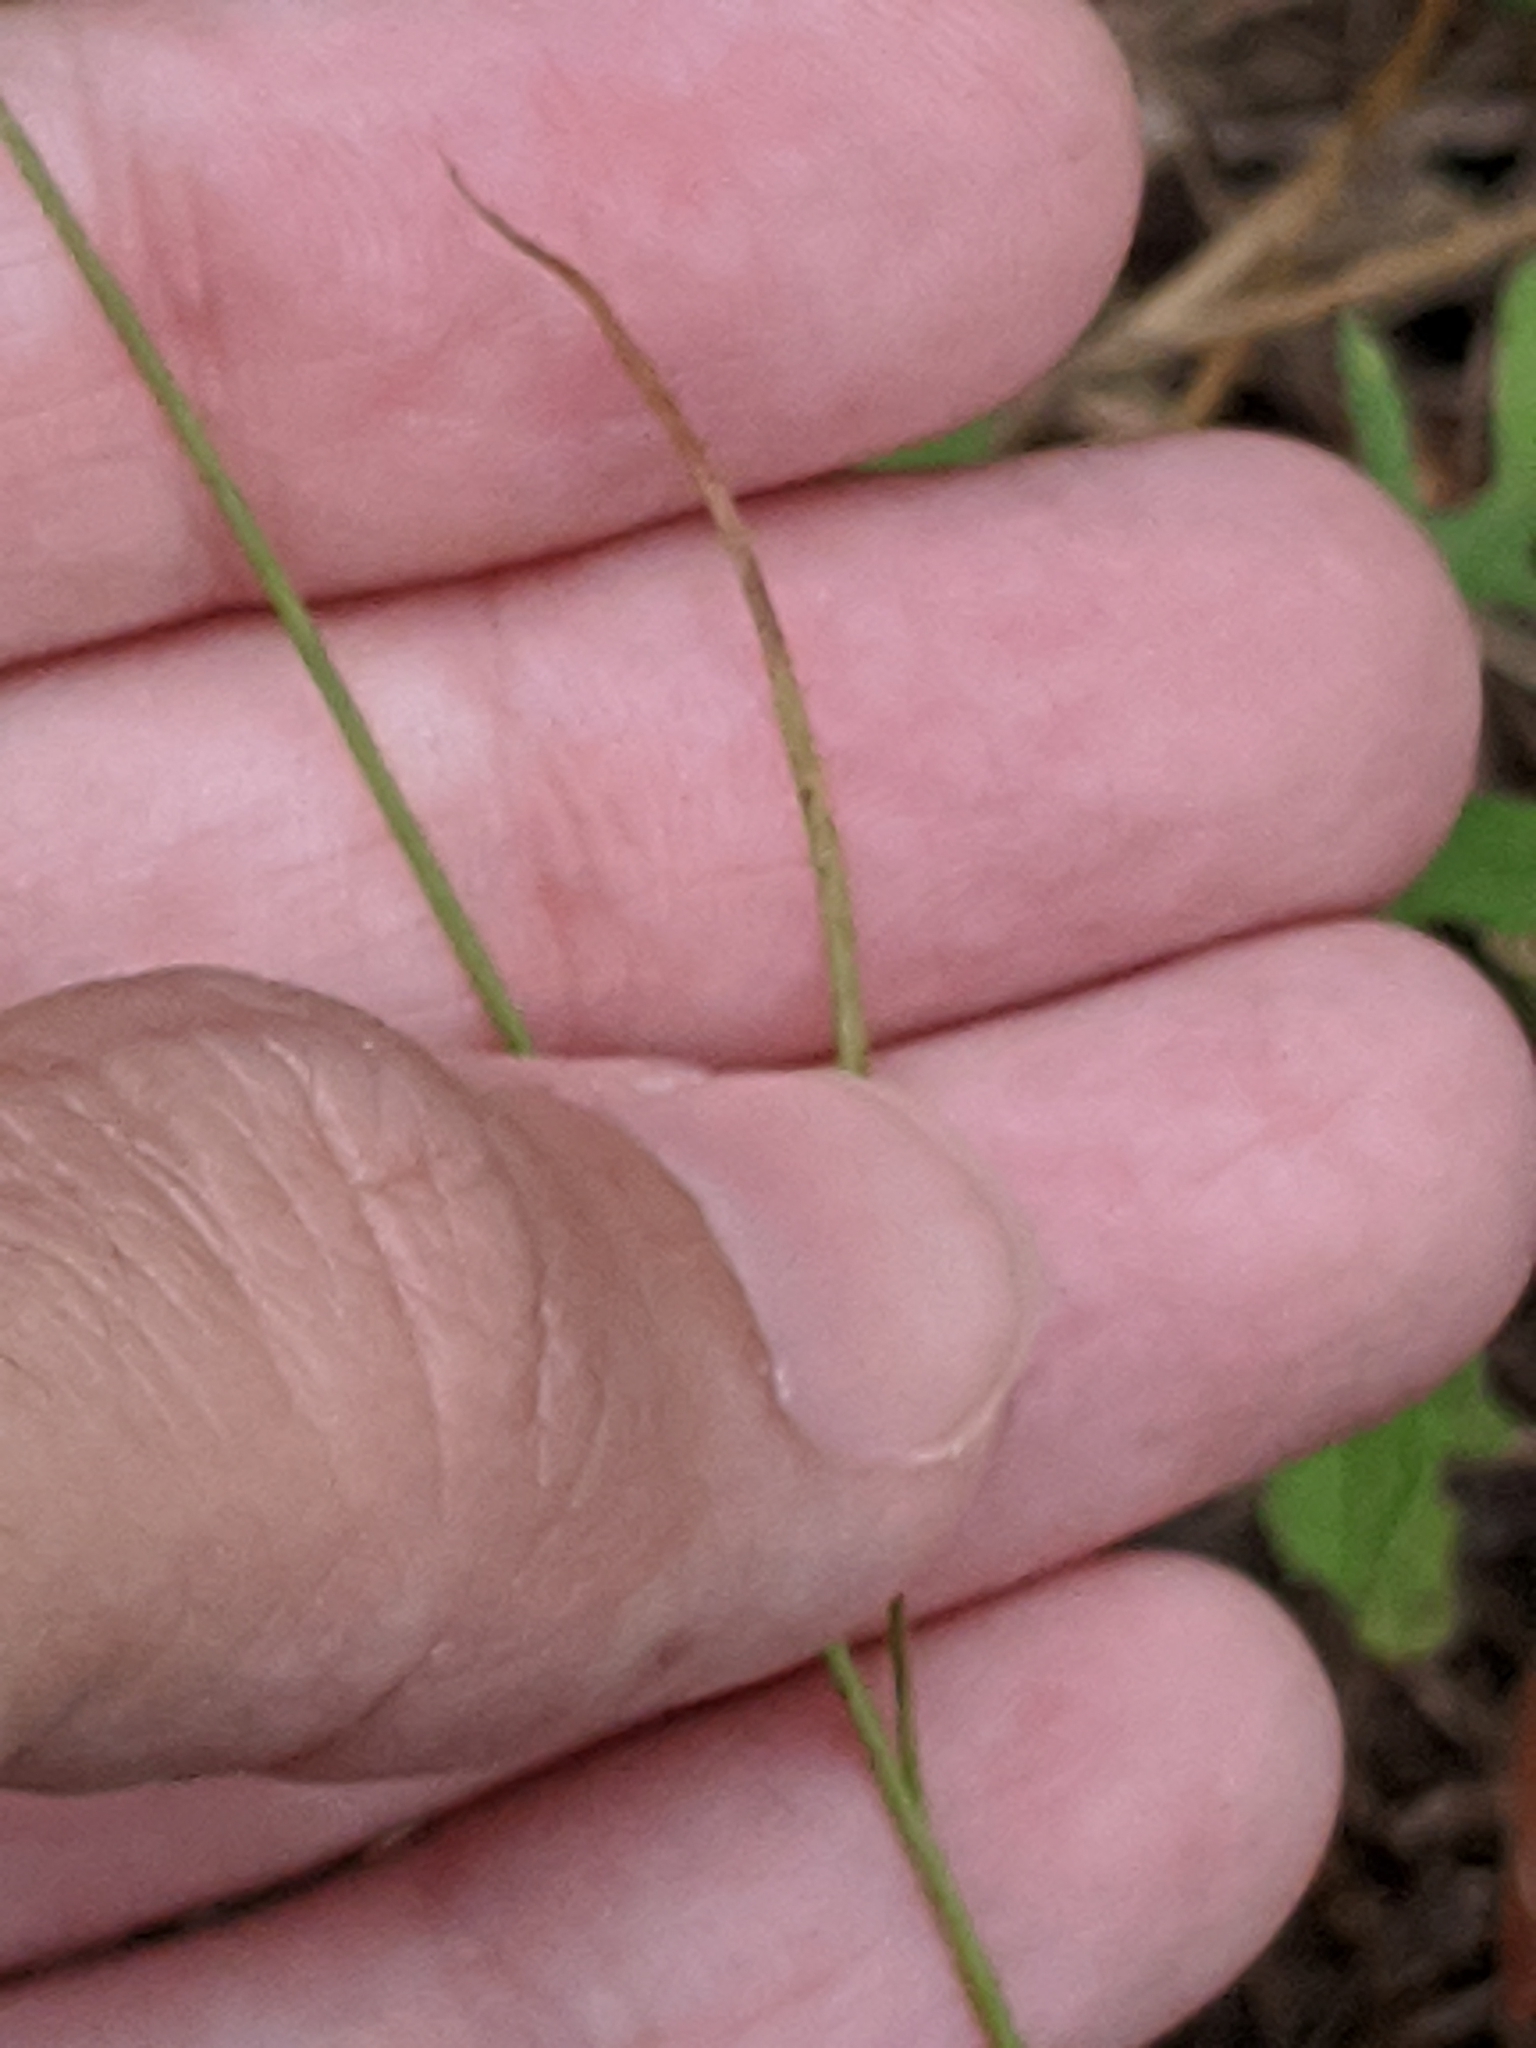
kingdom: Plantae
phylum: Tracheophyta
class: Liliopsida
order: Poales
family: Juncaceae
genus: Juncus
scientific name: Juncus marginatus
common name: Grass-leaf rush
